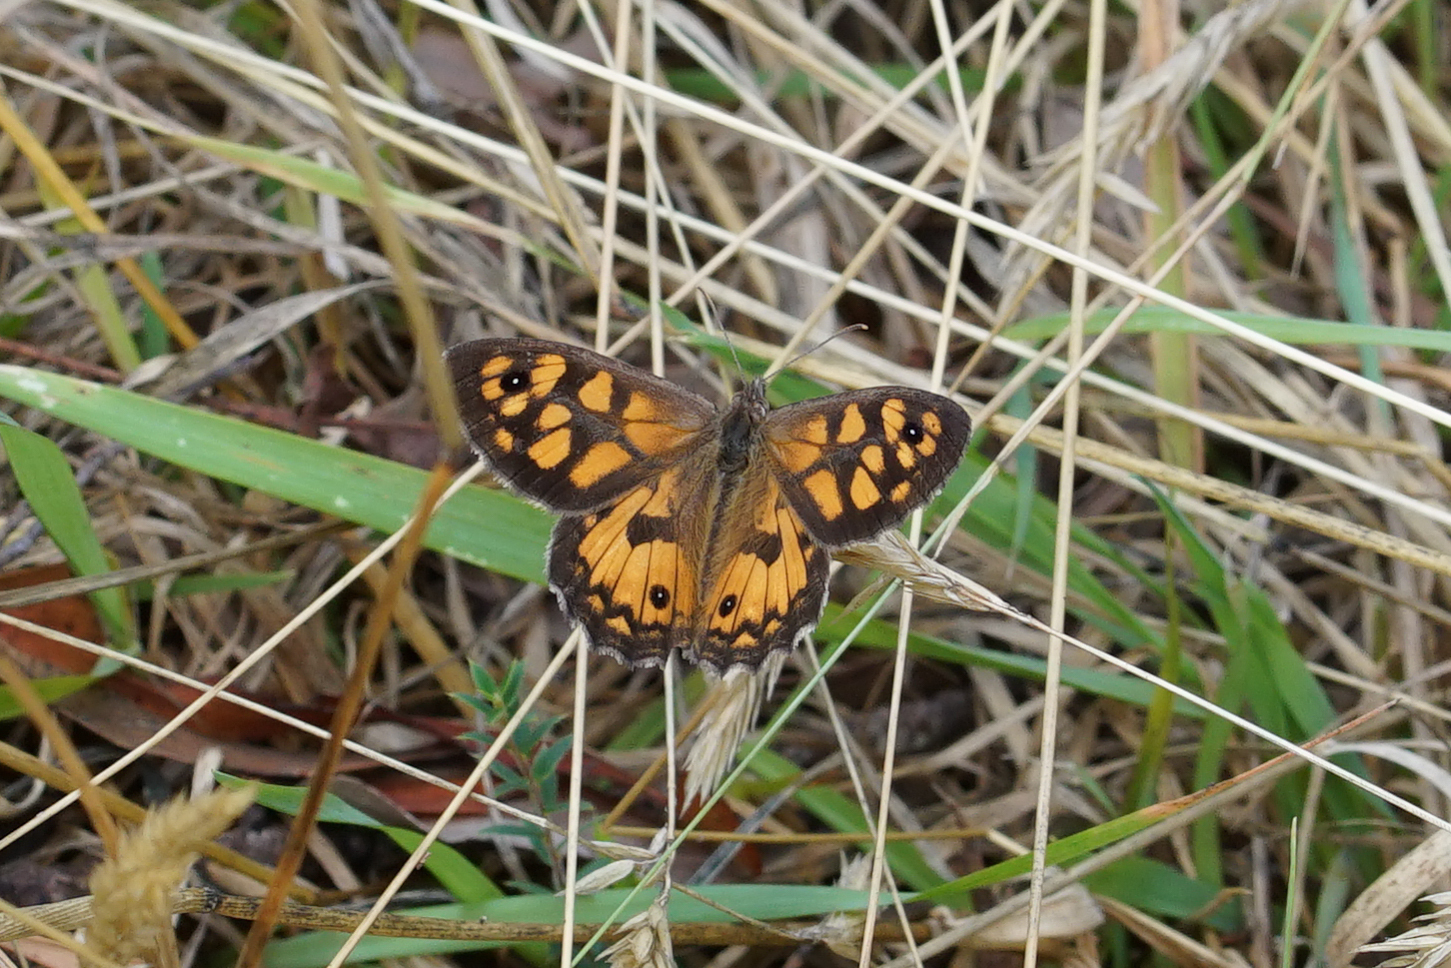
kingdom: Animalia
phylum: Arthropoda
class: Insecta
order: Lepidoptera
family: Nymphalidae
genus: Geitoneura
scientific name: Geitoneura klugii
